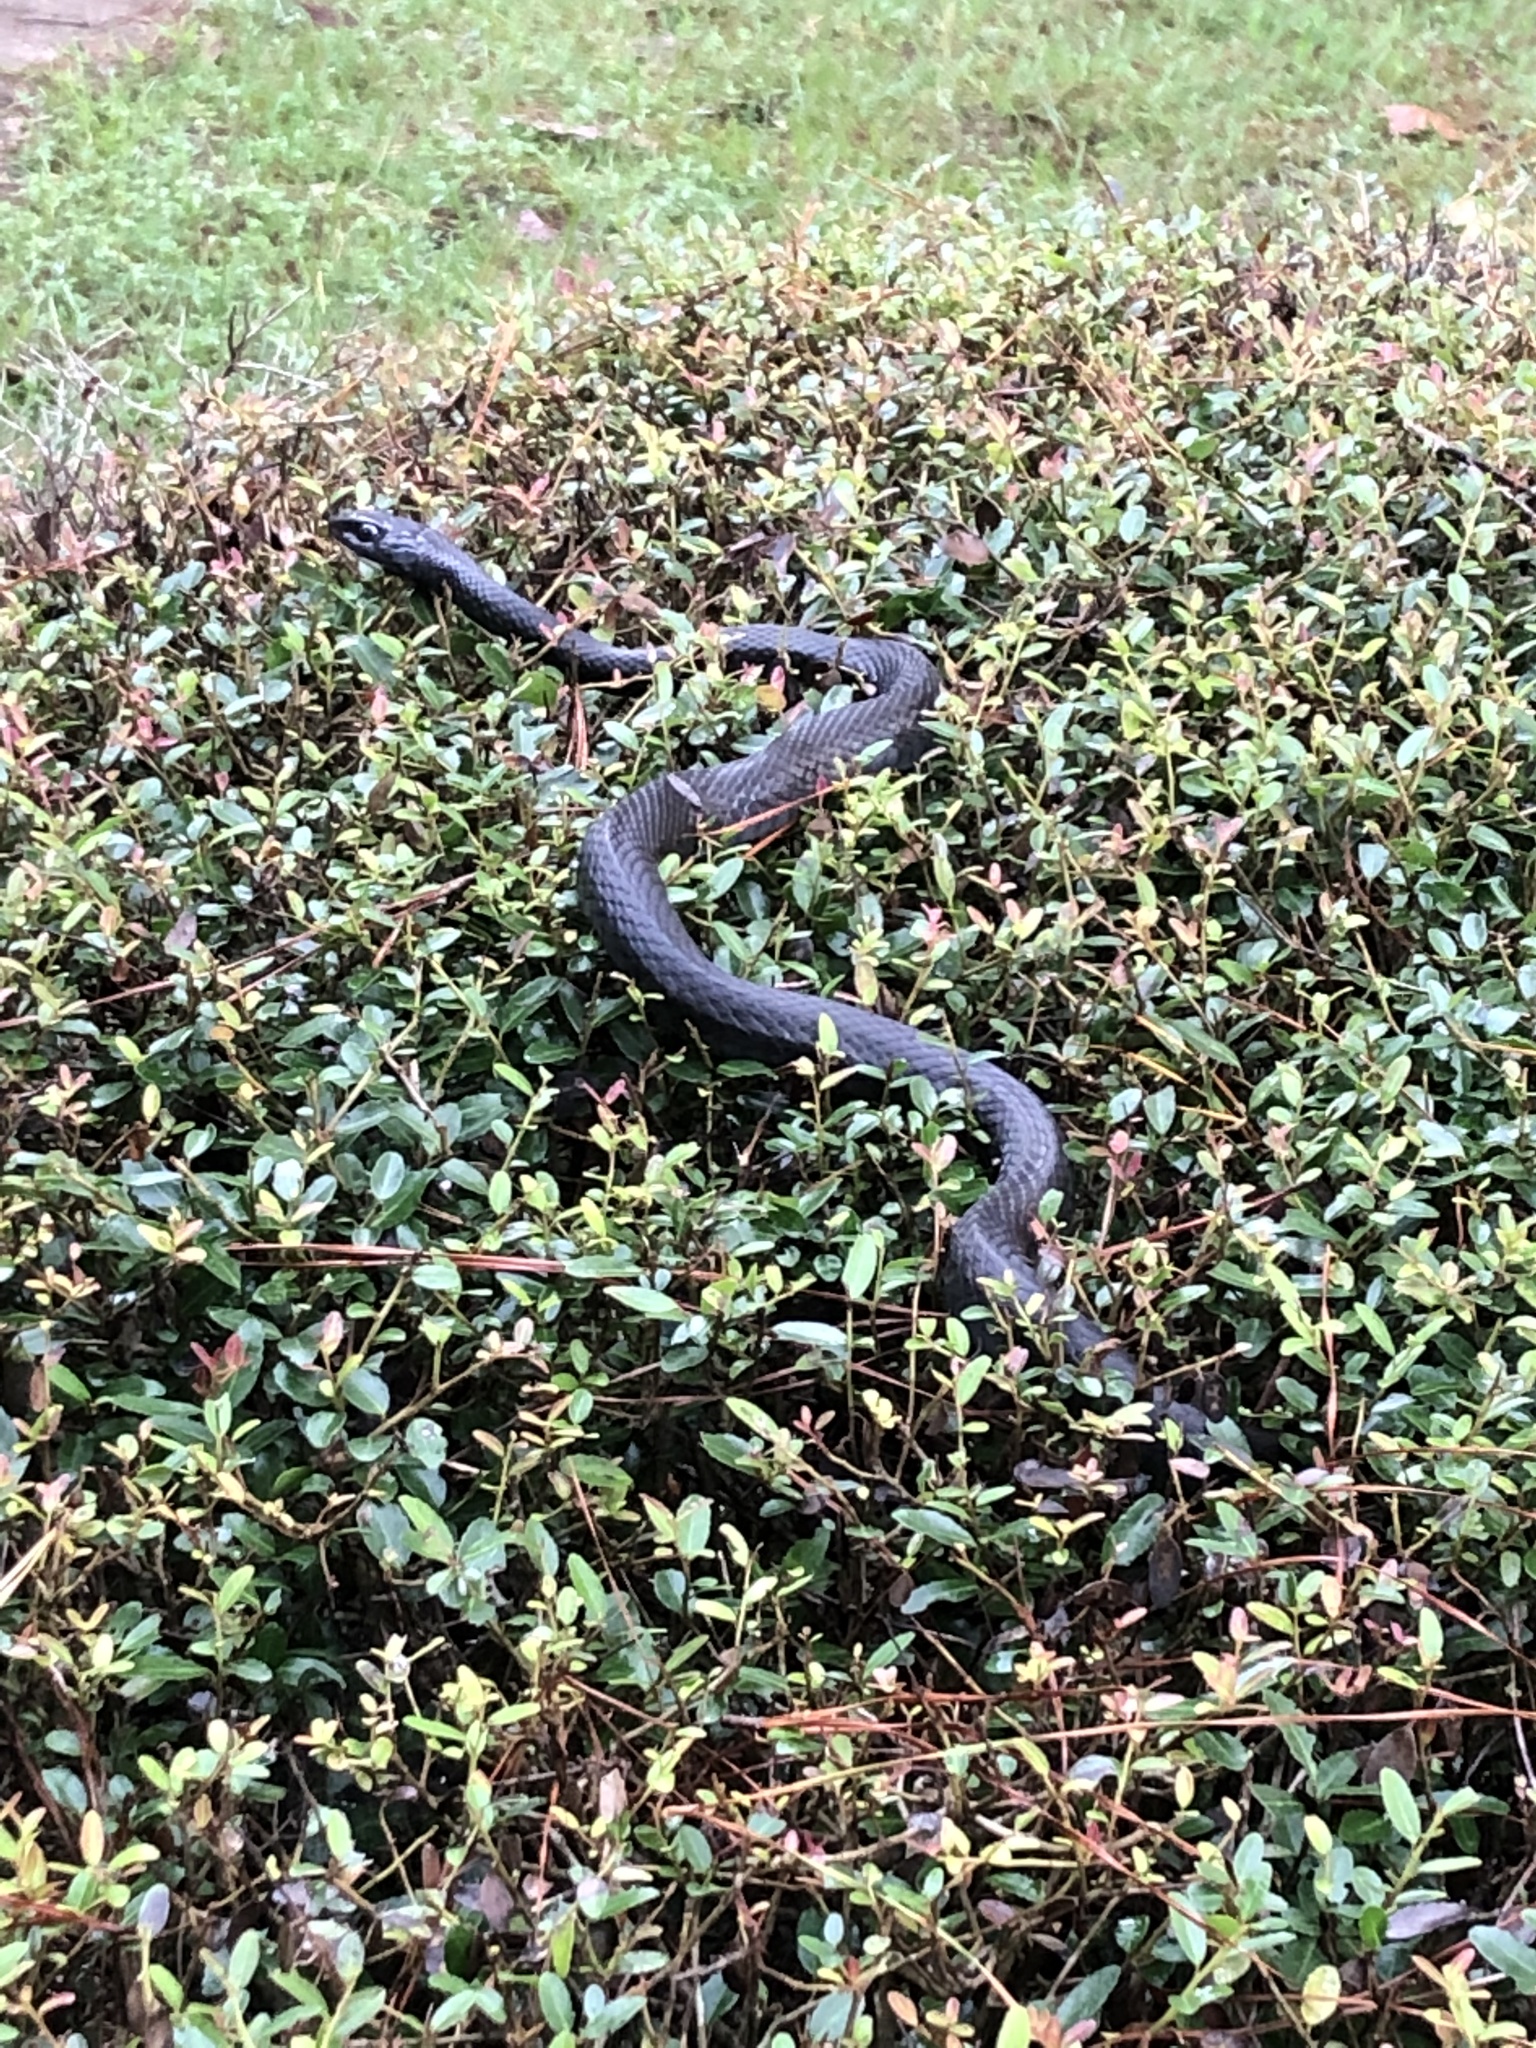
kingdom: Animalia
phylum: Chordata
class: Squamata
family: Colubridae
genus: Coluber
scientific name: Coluber constrictor
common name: Eastern racer
